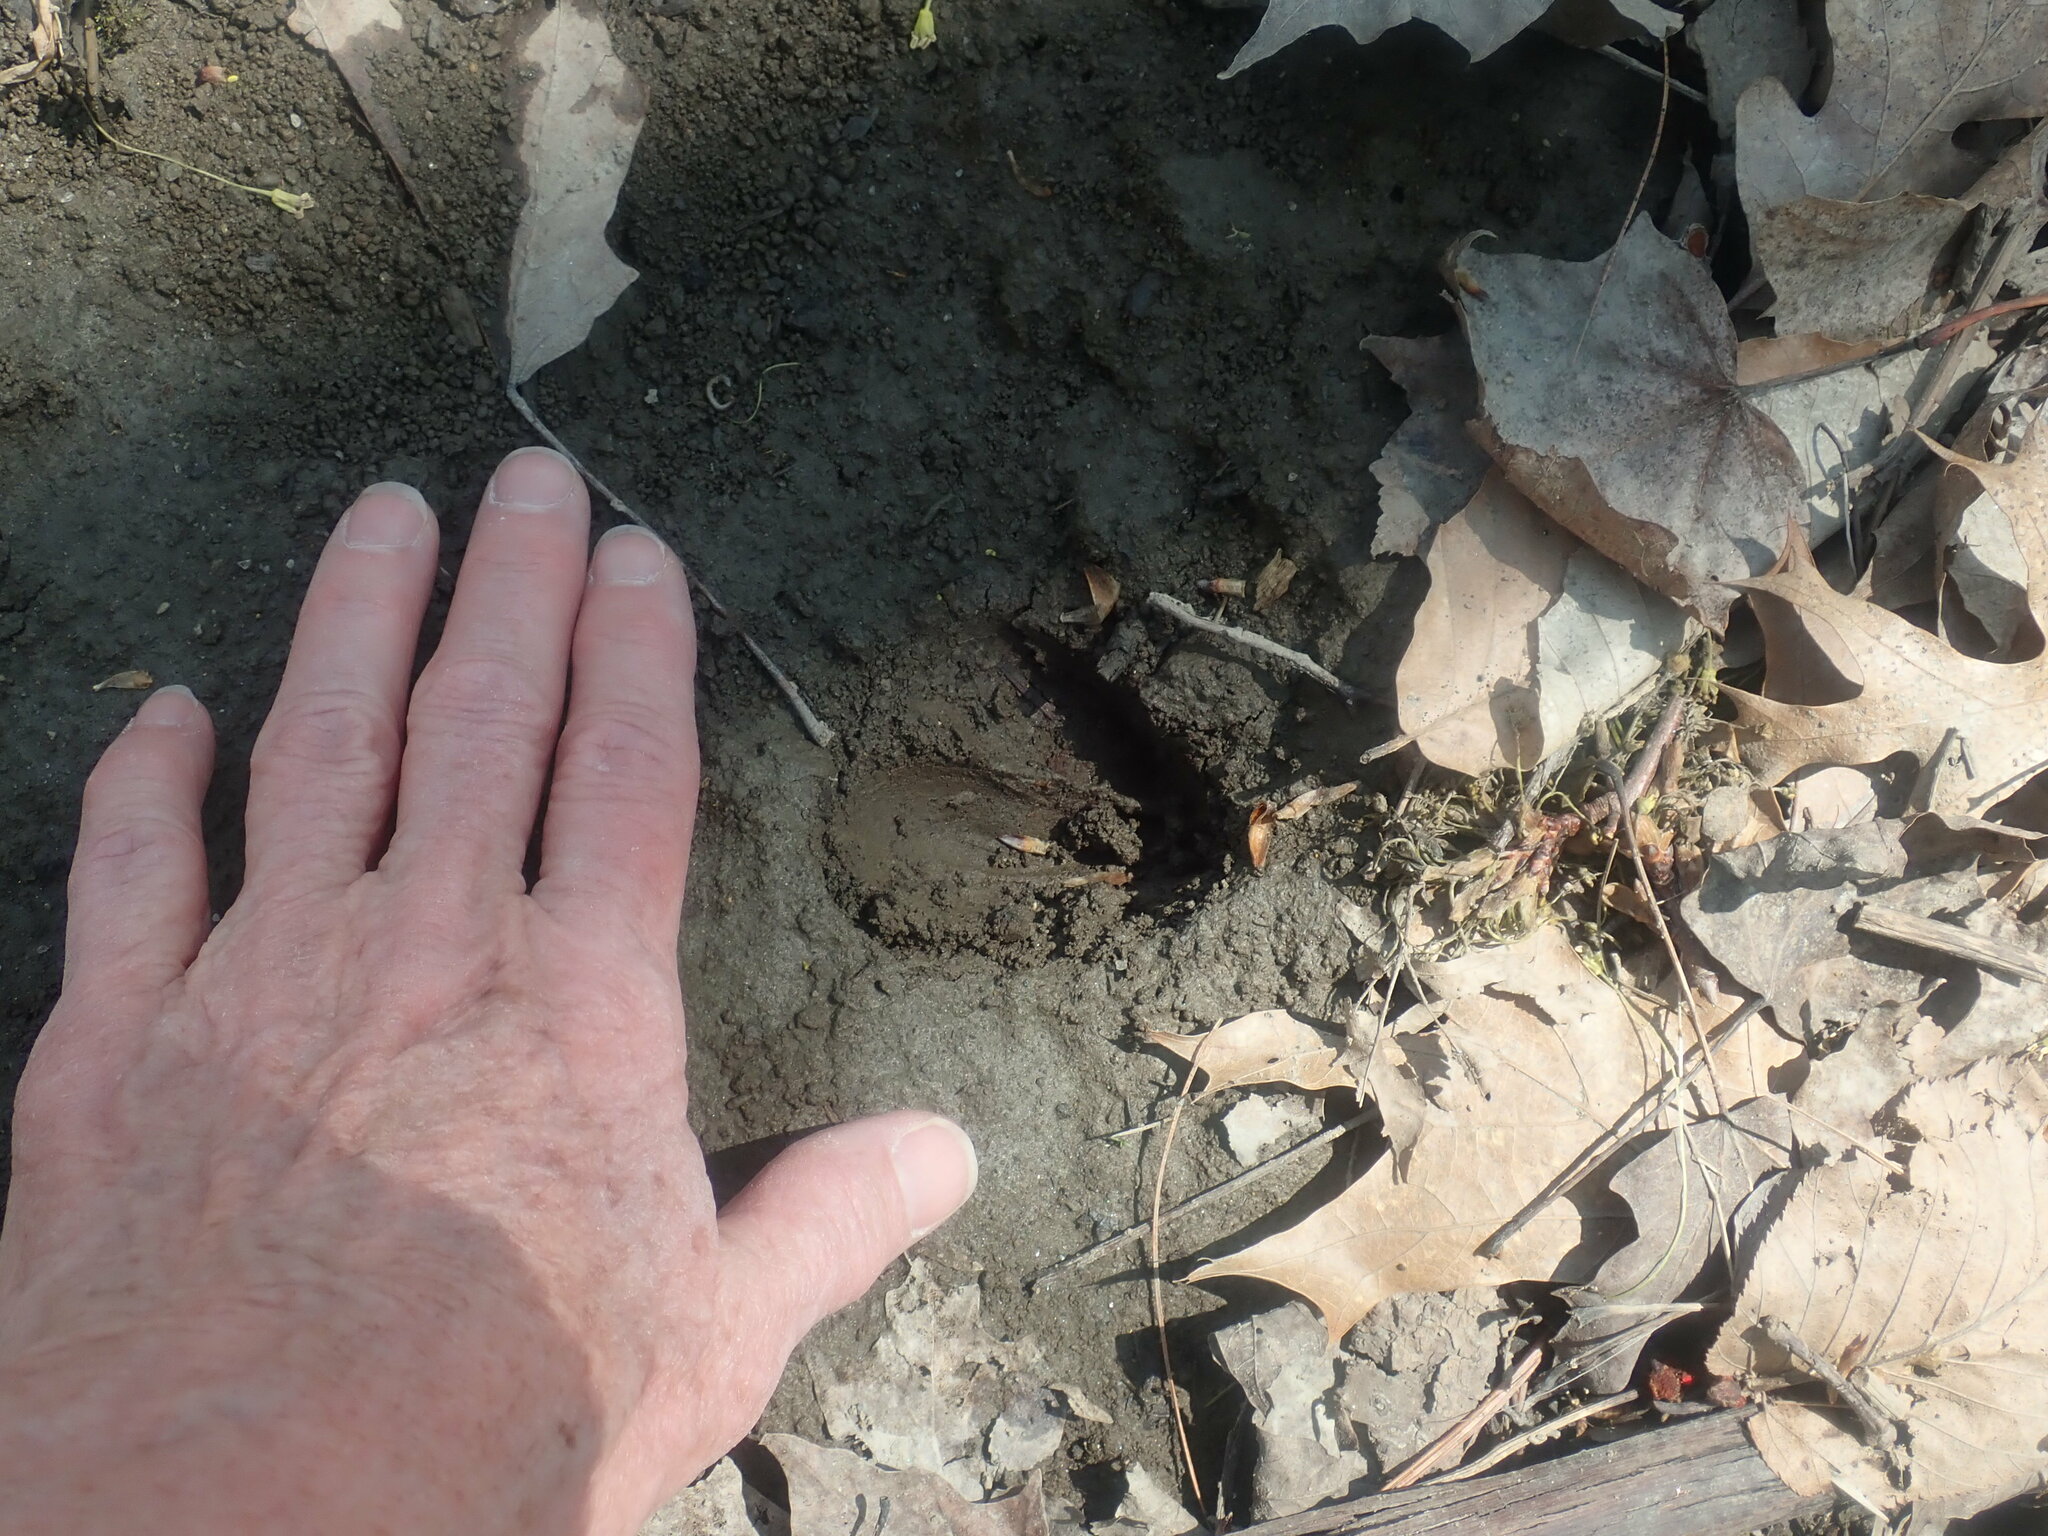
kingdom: Animalia
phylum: Chordata
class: Mammalia
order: Artiodactyla
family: Cervidae
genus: Odocoileus
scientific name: Odocoileus virginianus
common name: White-tailed deer
